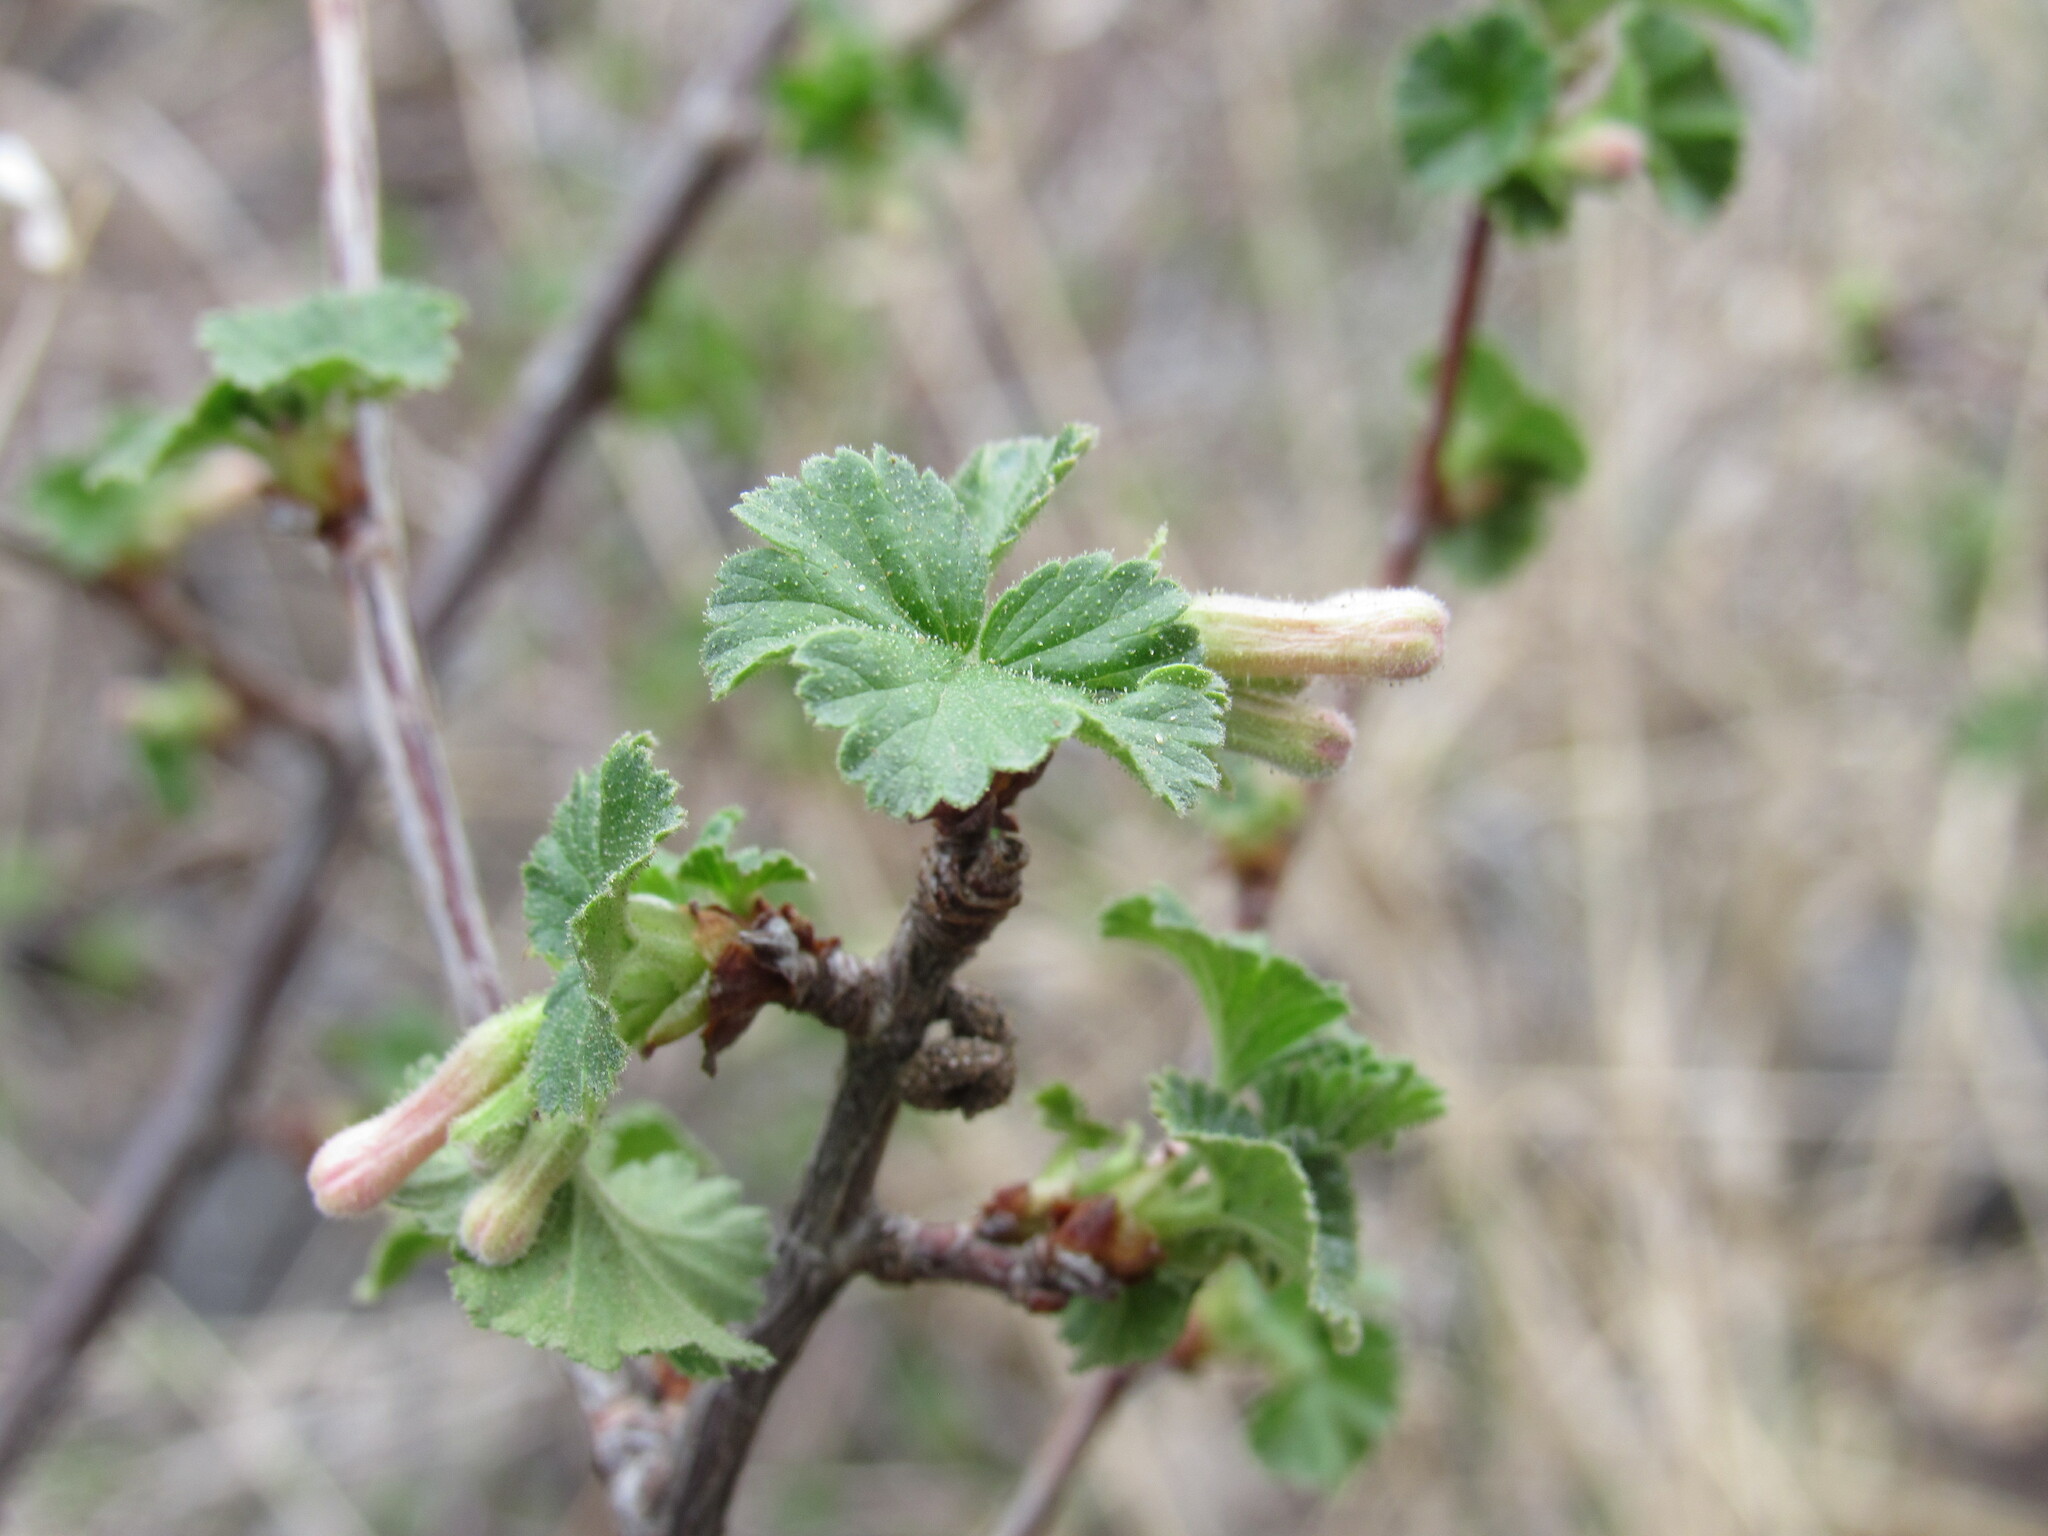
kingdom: Plantae
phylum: Tracheophyta
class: Magnoliopsida
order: Saxifragales
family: Grossulariaceae
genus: Ribes
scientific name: Ribes cereum
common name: Wax currant
